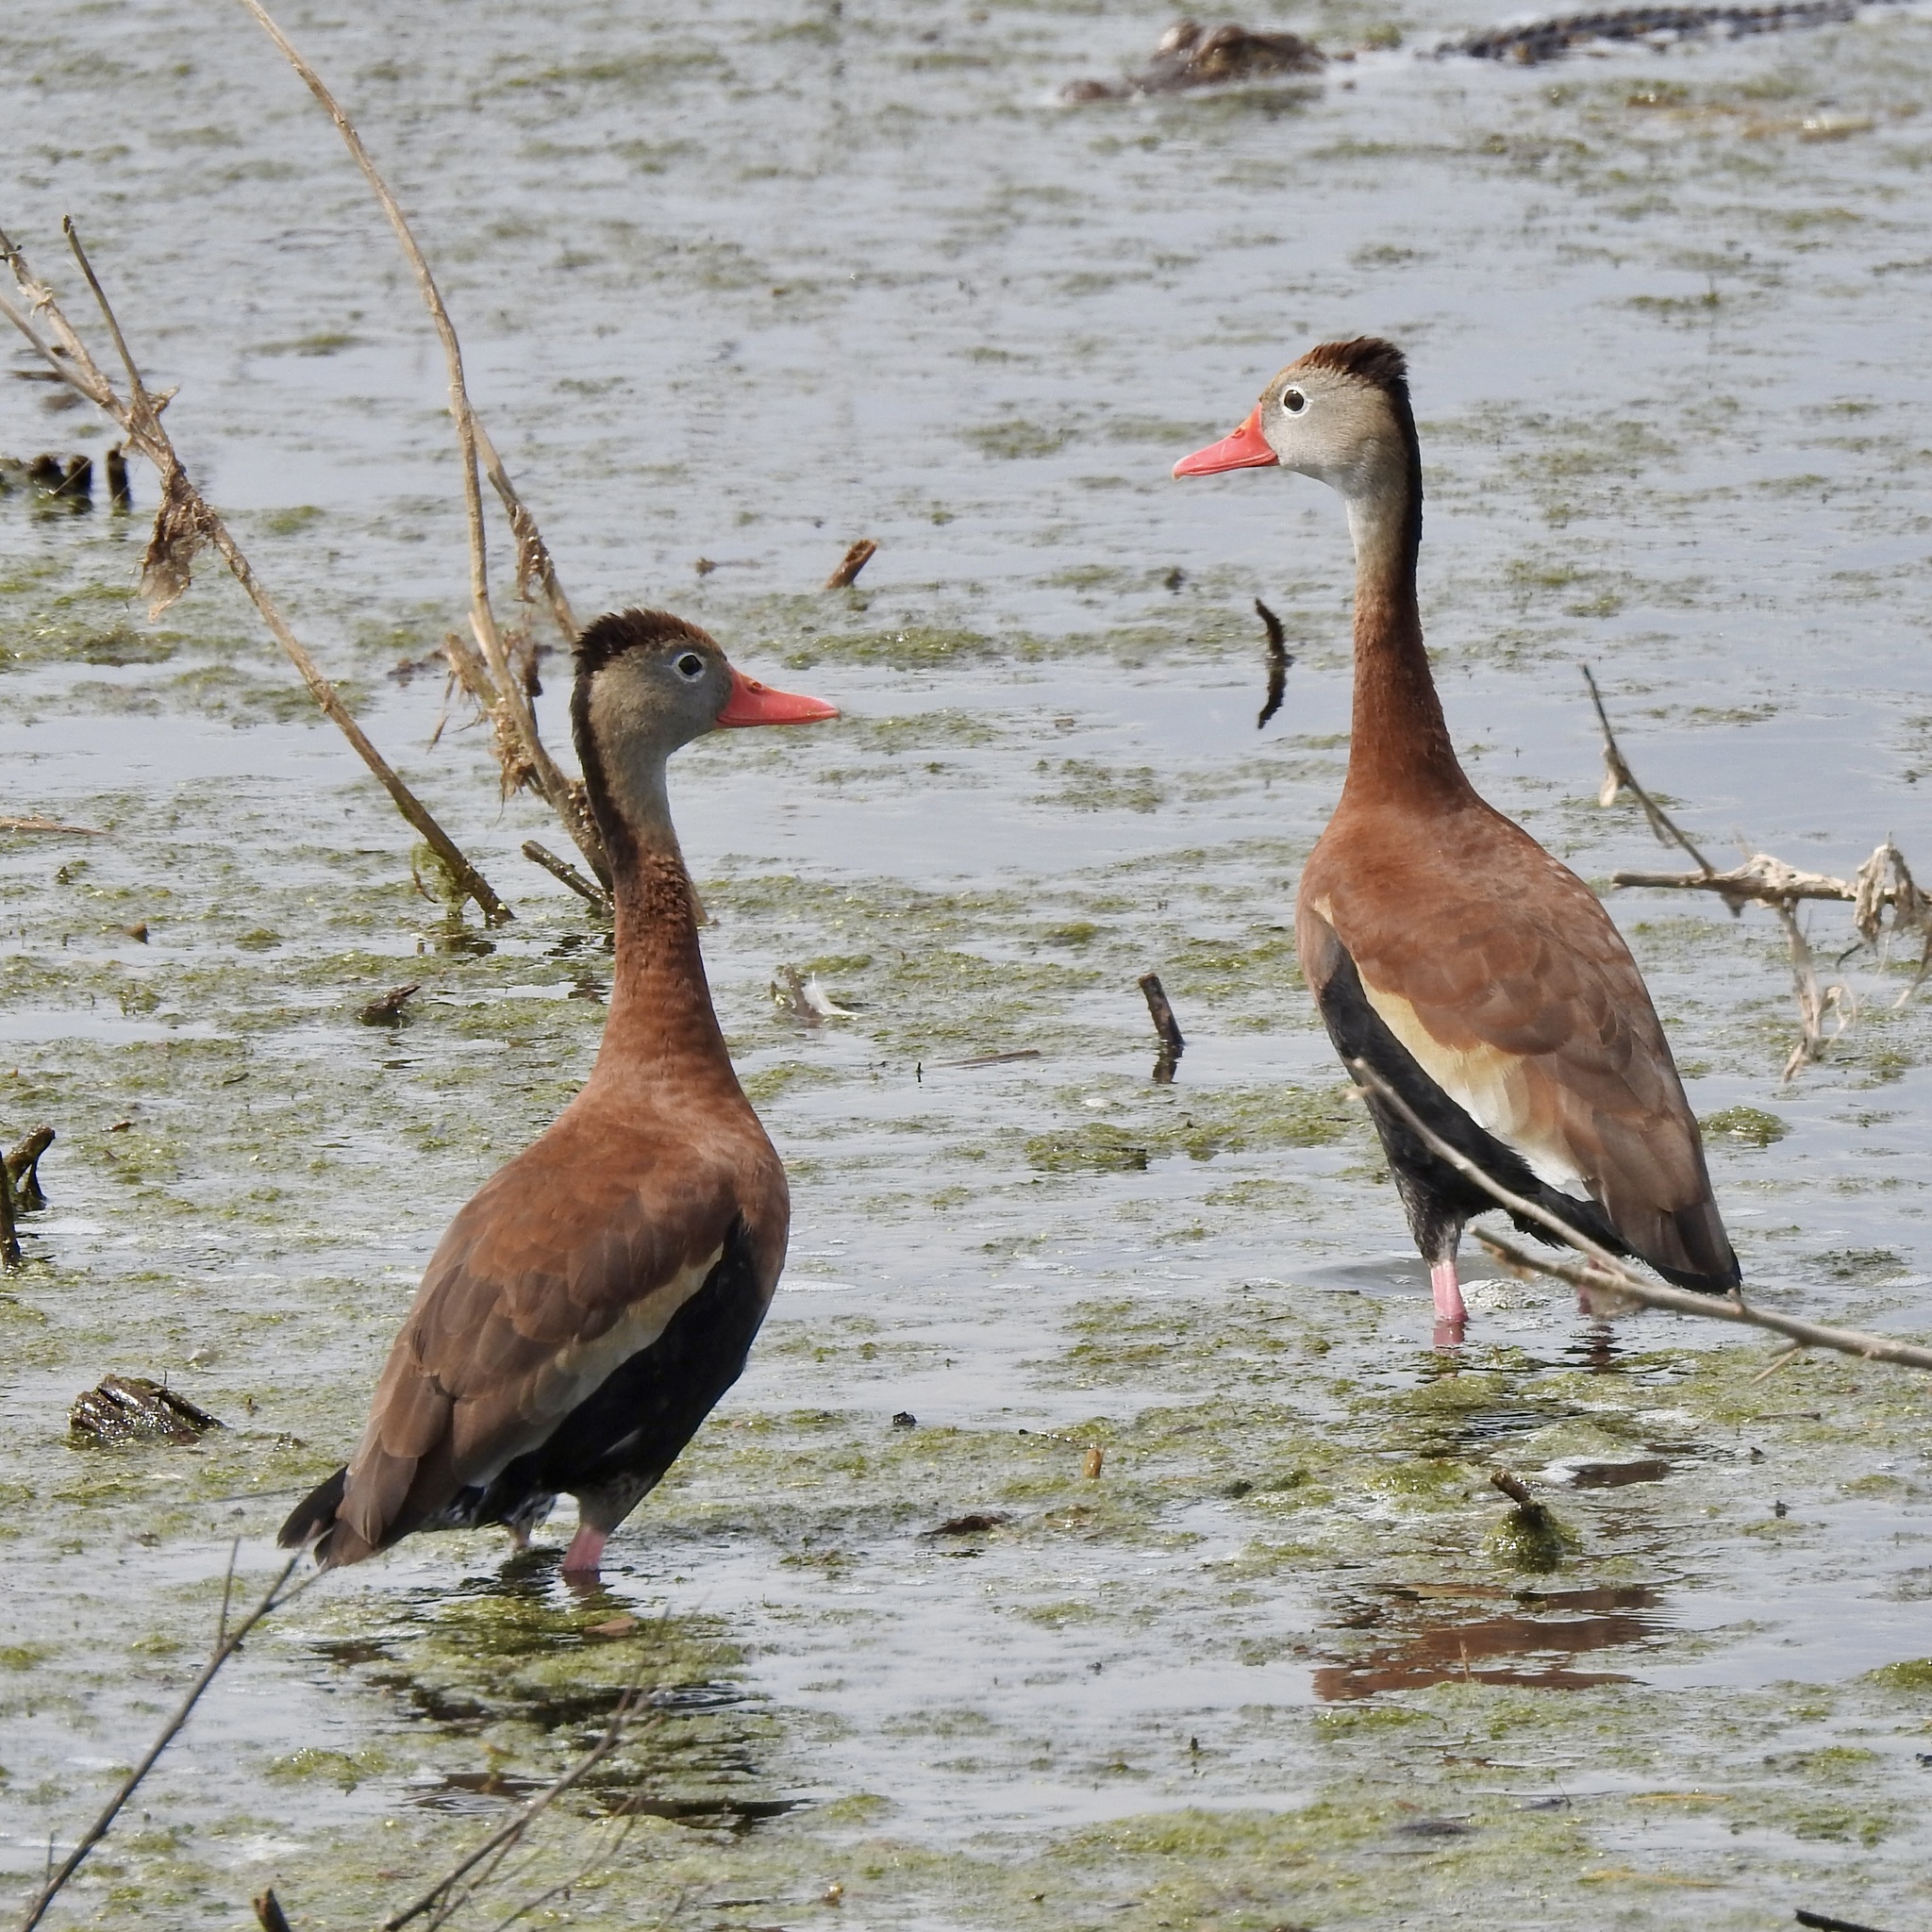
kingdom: Animalia
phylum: Chordata
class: Aves
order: Anseriformes
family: Anatidae
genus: Dendrocygna
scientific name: Dendrocygna autumnalis
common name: Black-bellied whistling duck
